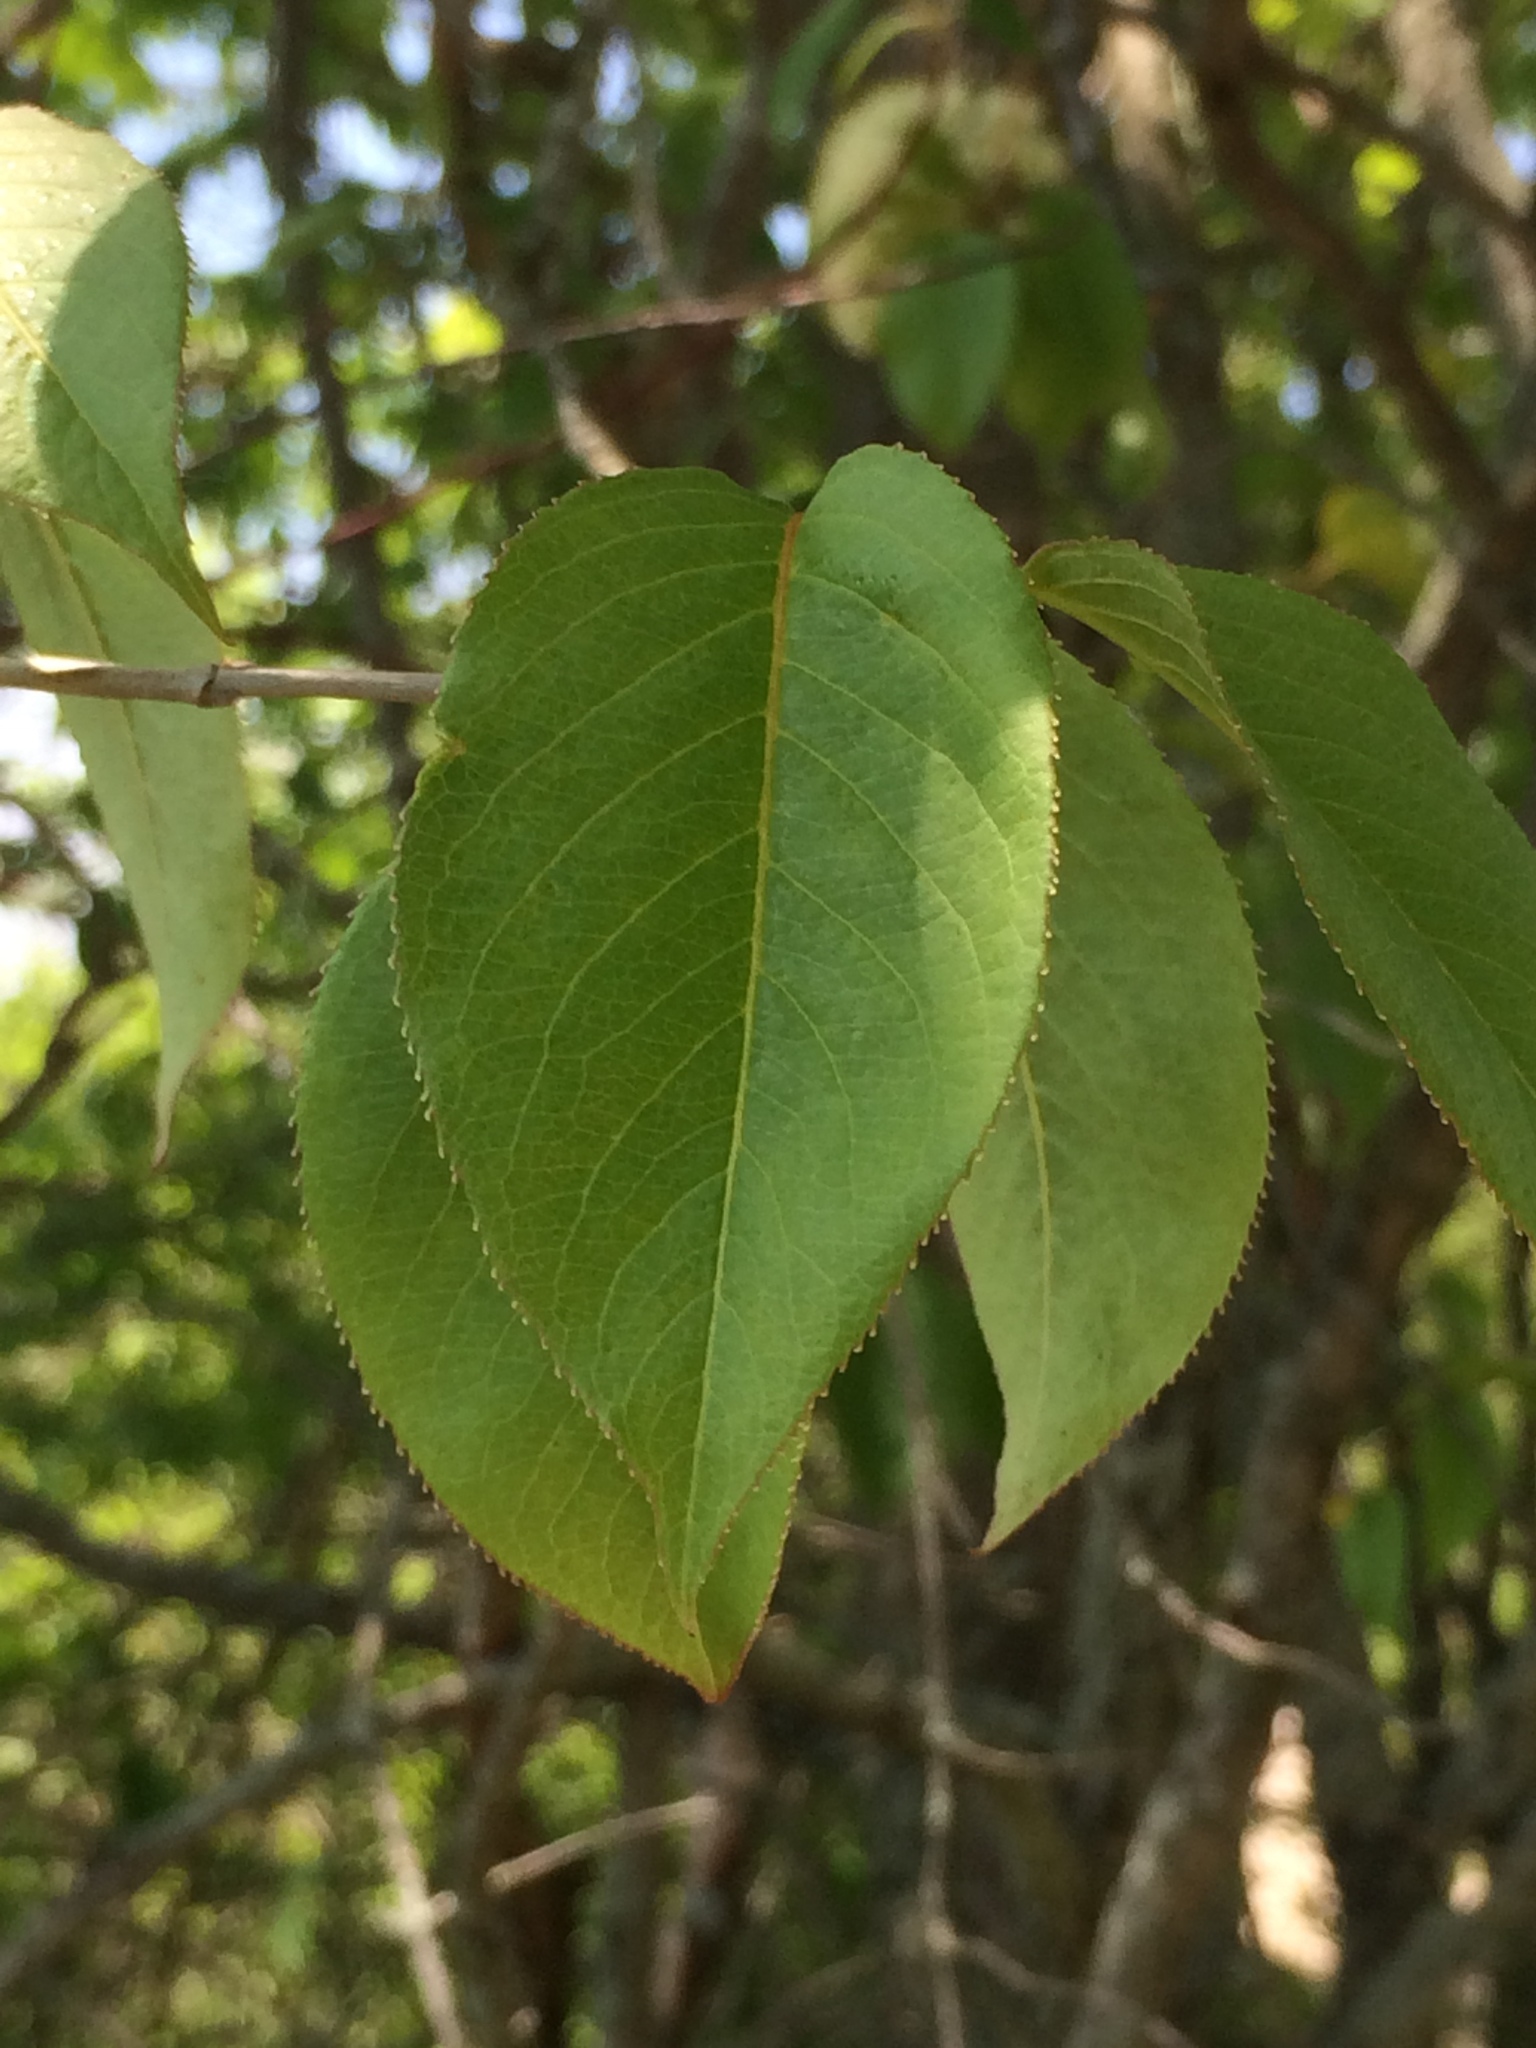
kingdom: Plantae
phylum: Tracheophyta
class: Magnoliopsida
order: Dipsacales
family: Viburnaceae
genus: Viburnum
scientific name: Viburnum lentago
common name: Black haw
